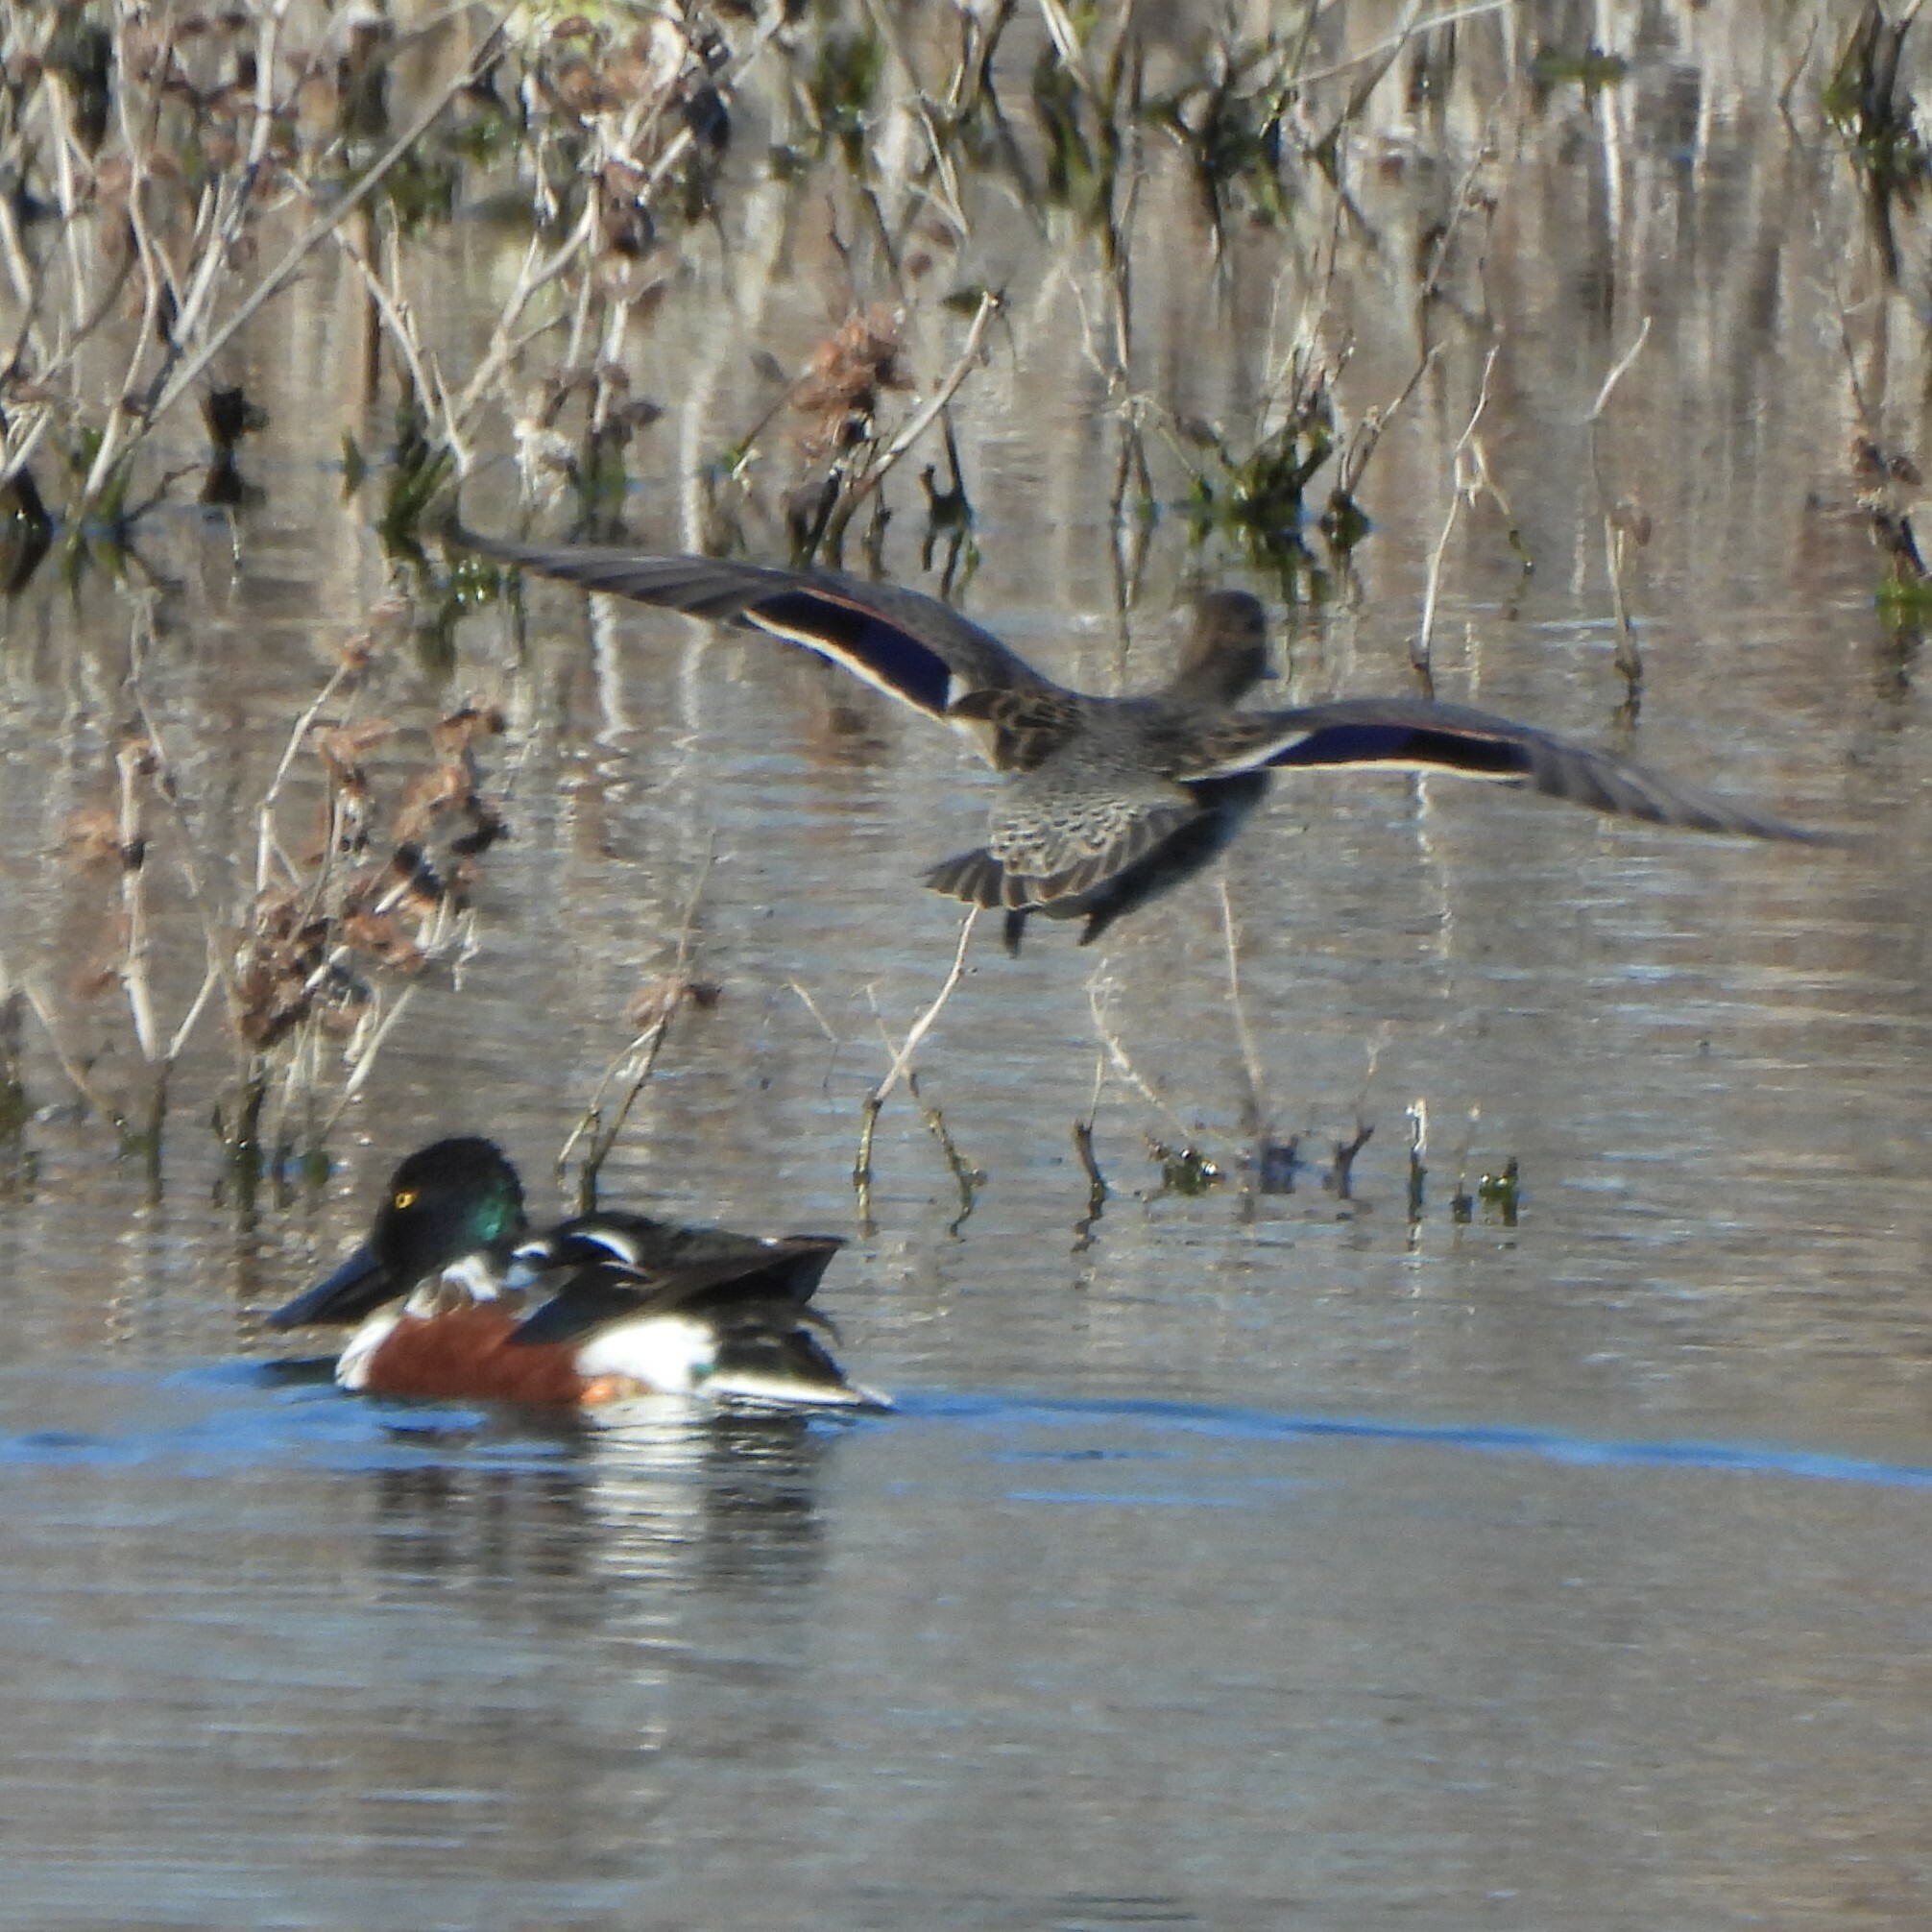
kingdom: Animalia
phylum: Chordata
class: Aves
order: Anseriformes
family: Anatidae
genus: Spatula
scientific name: Spatula clypeata
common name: Northern shoveler
